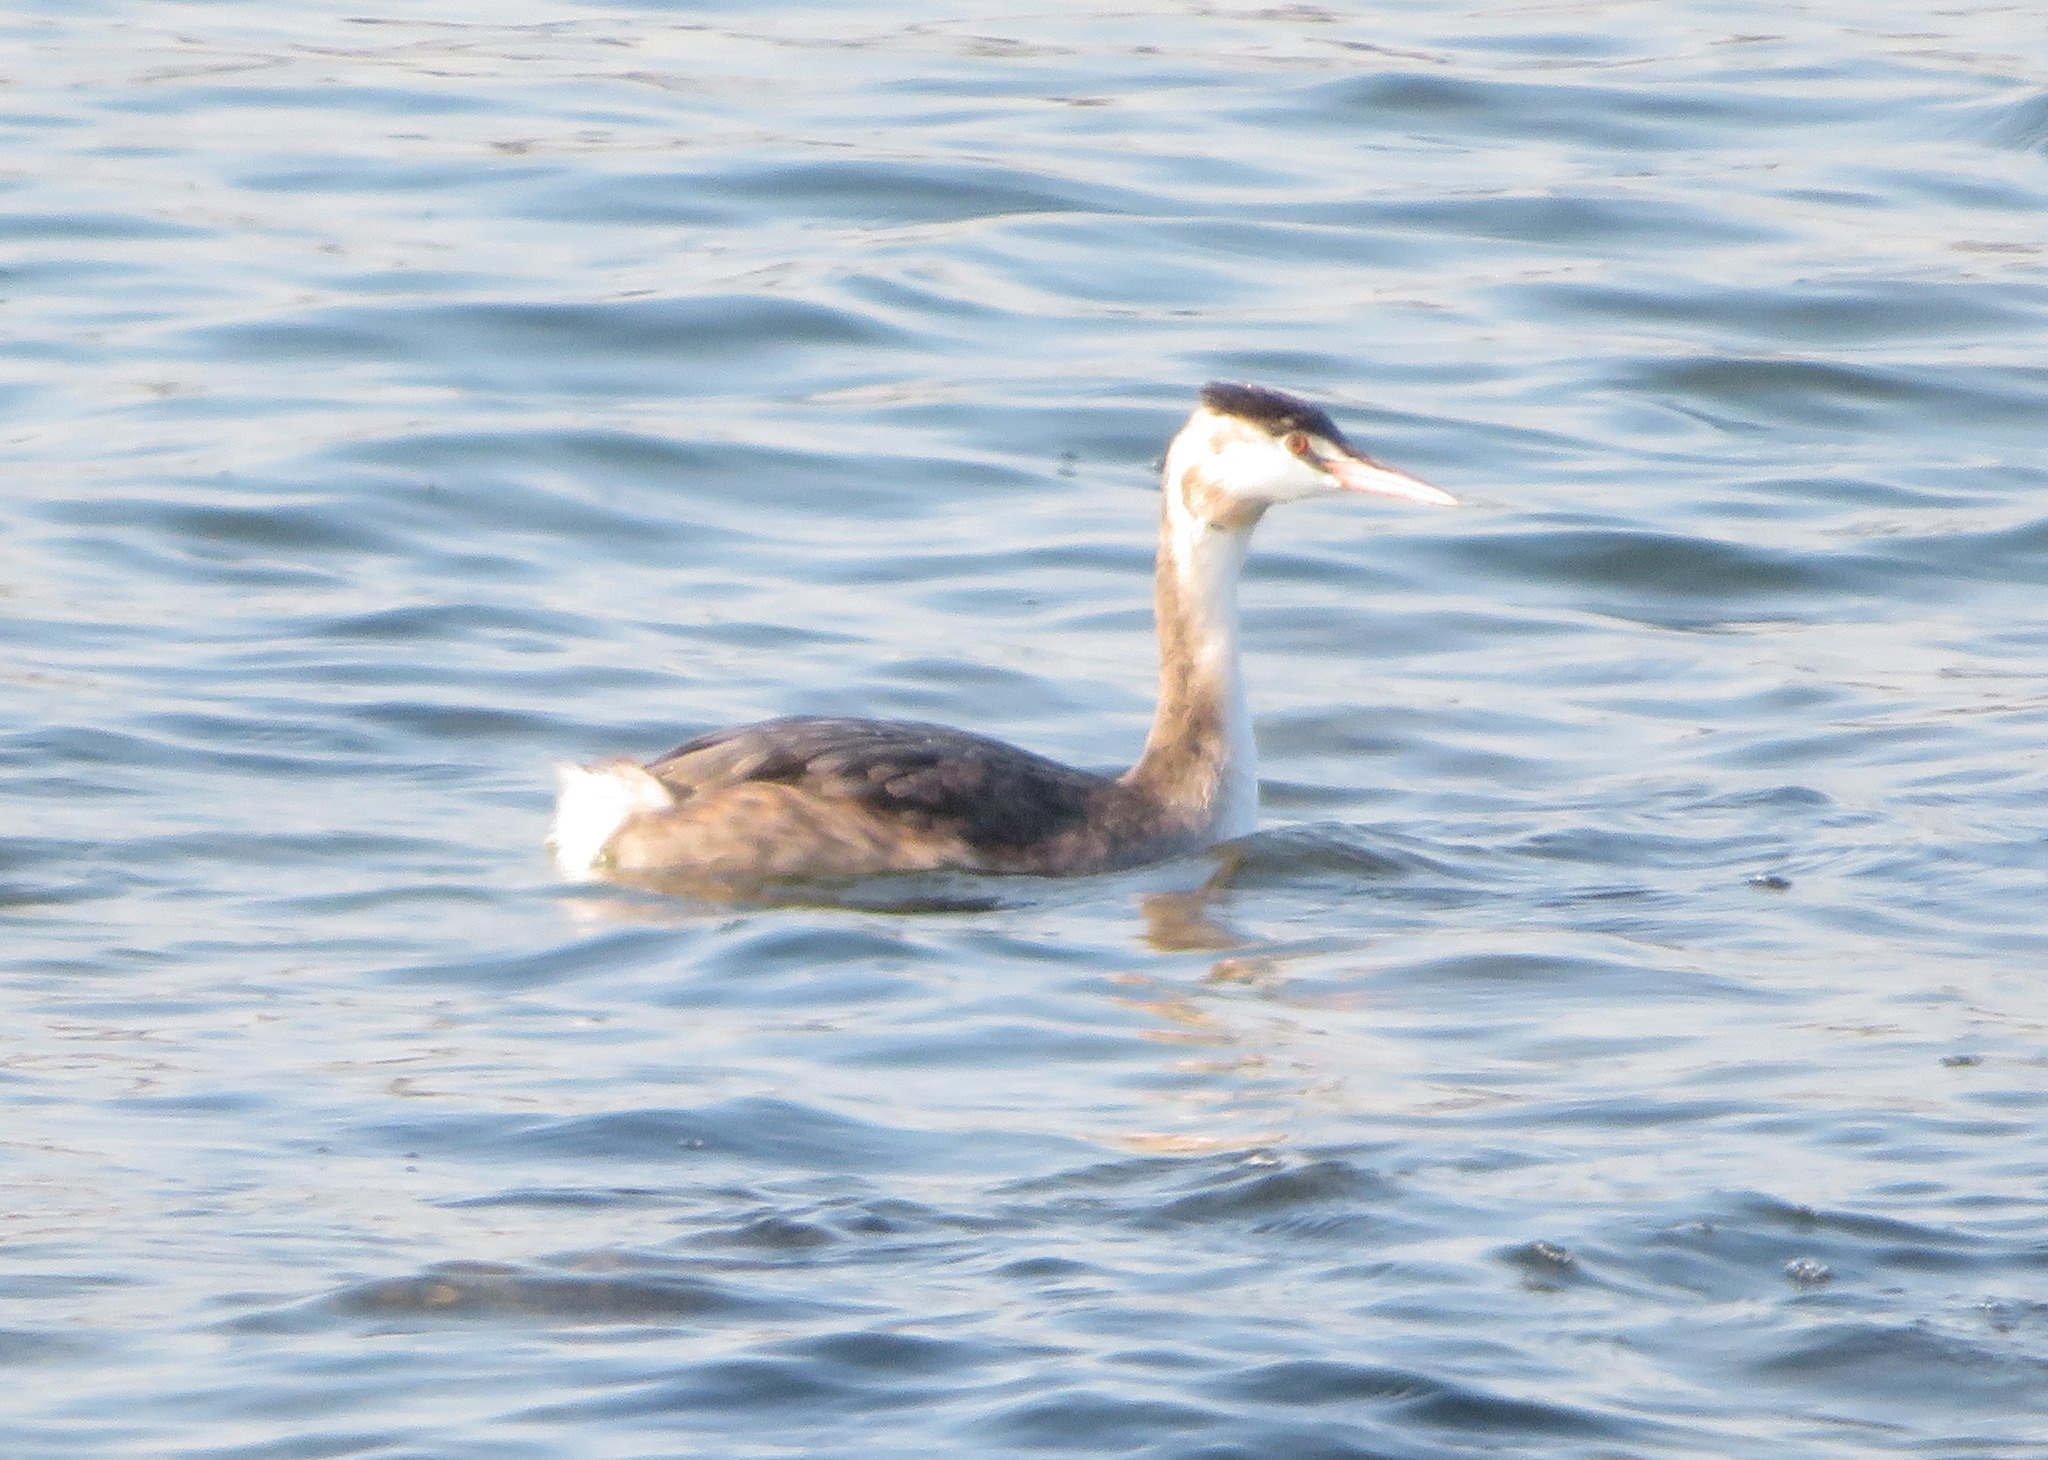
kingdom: Animalia
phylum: Chordata
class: Aves
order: Podicipediformes
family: Podicipedidae
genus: Podiceps
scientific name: Podiceps cristatus
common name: Great crested grebe
